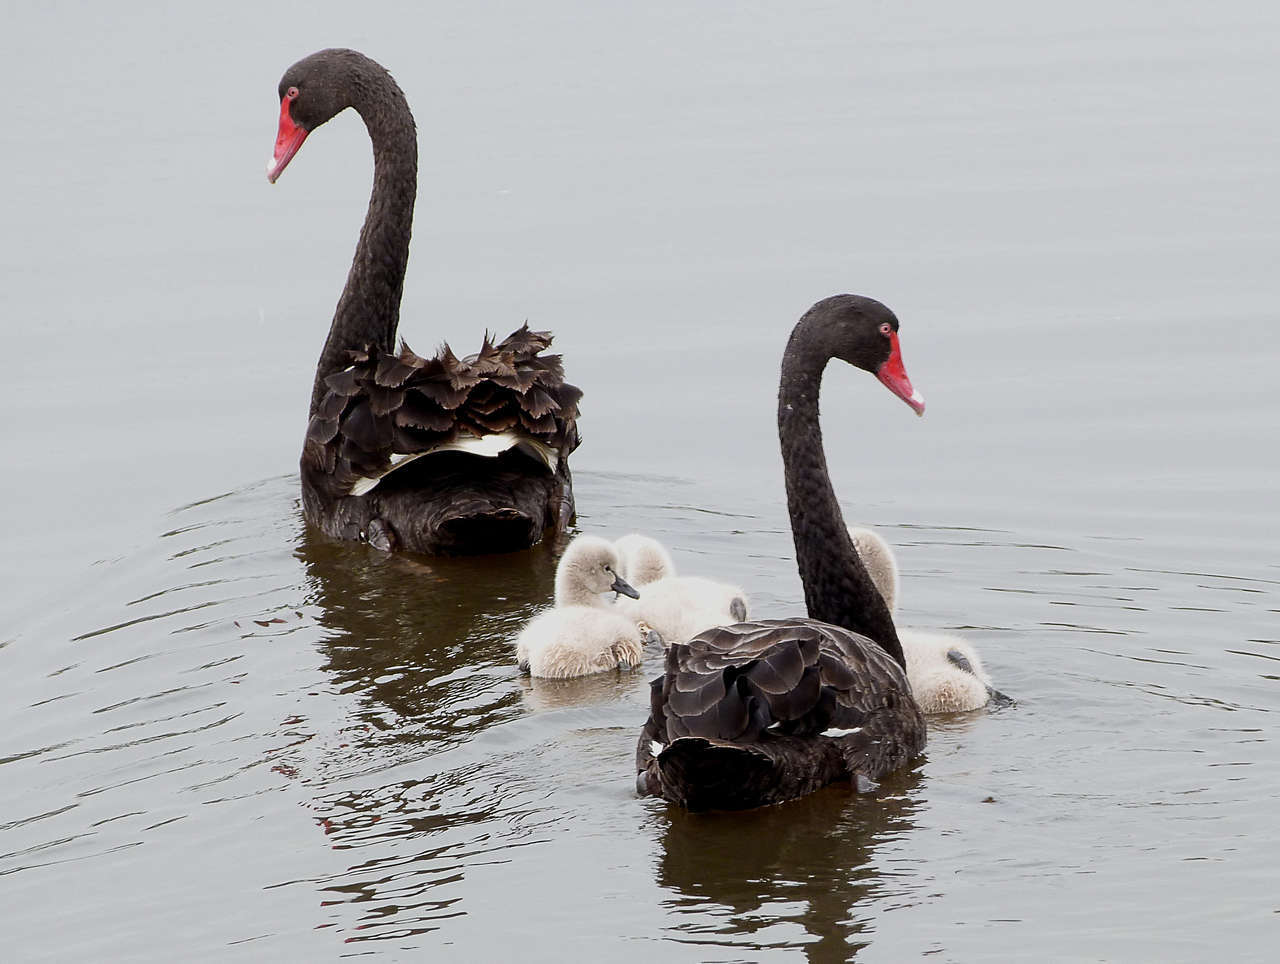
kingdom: Animalia
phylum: Chordata
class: Aves
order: Anseriformes
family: Anatidae
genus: Cygnus
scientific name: Cygnus atratus
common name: Black swan
